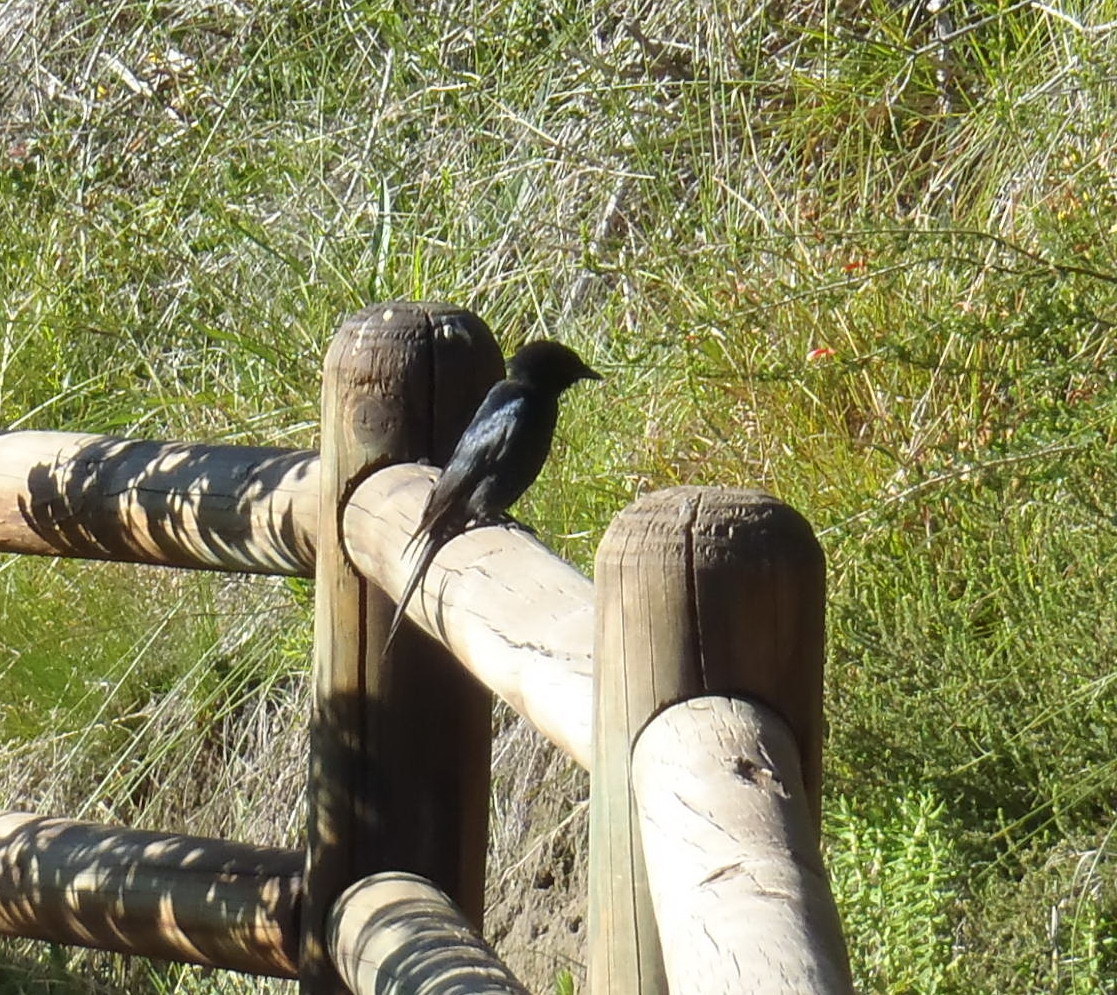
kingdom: Animalia
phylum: Chordata
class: Aves
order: Passeriformes
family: Dicruridae
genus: Dicrurus
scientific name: Dicrurus adsimilis
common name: Fork-tailed drongo
